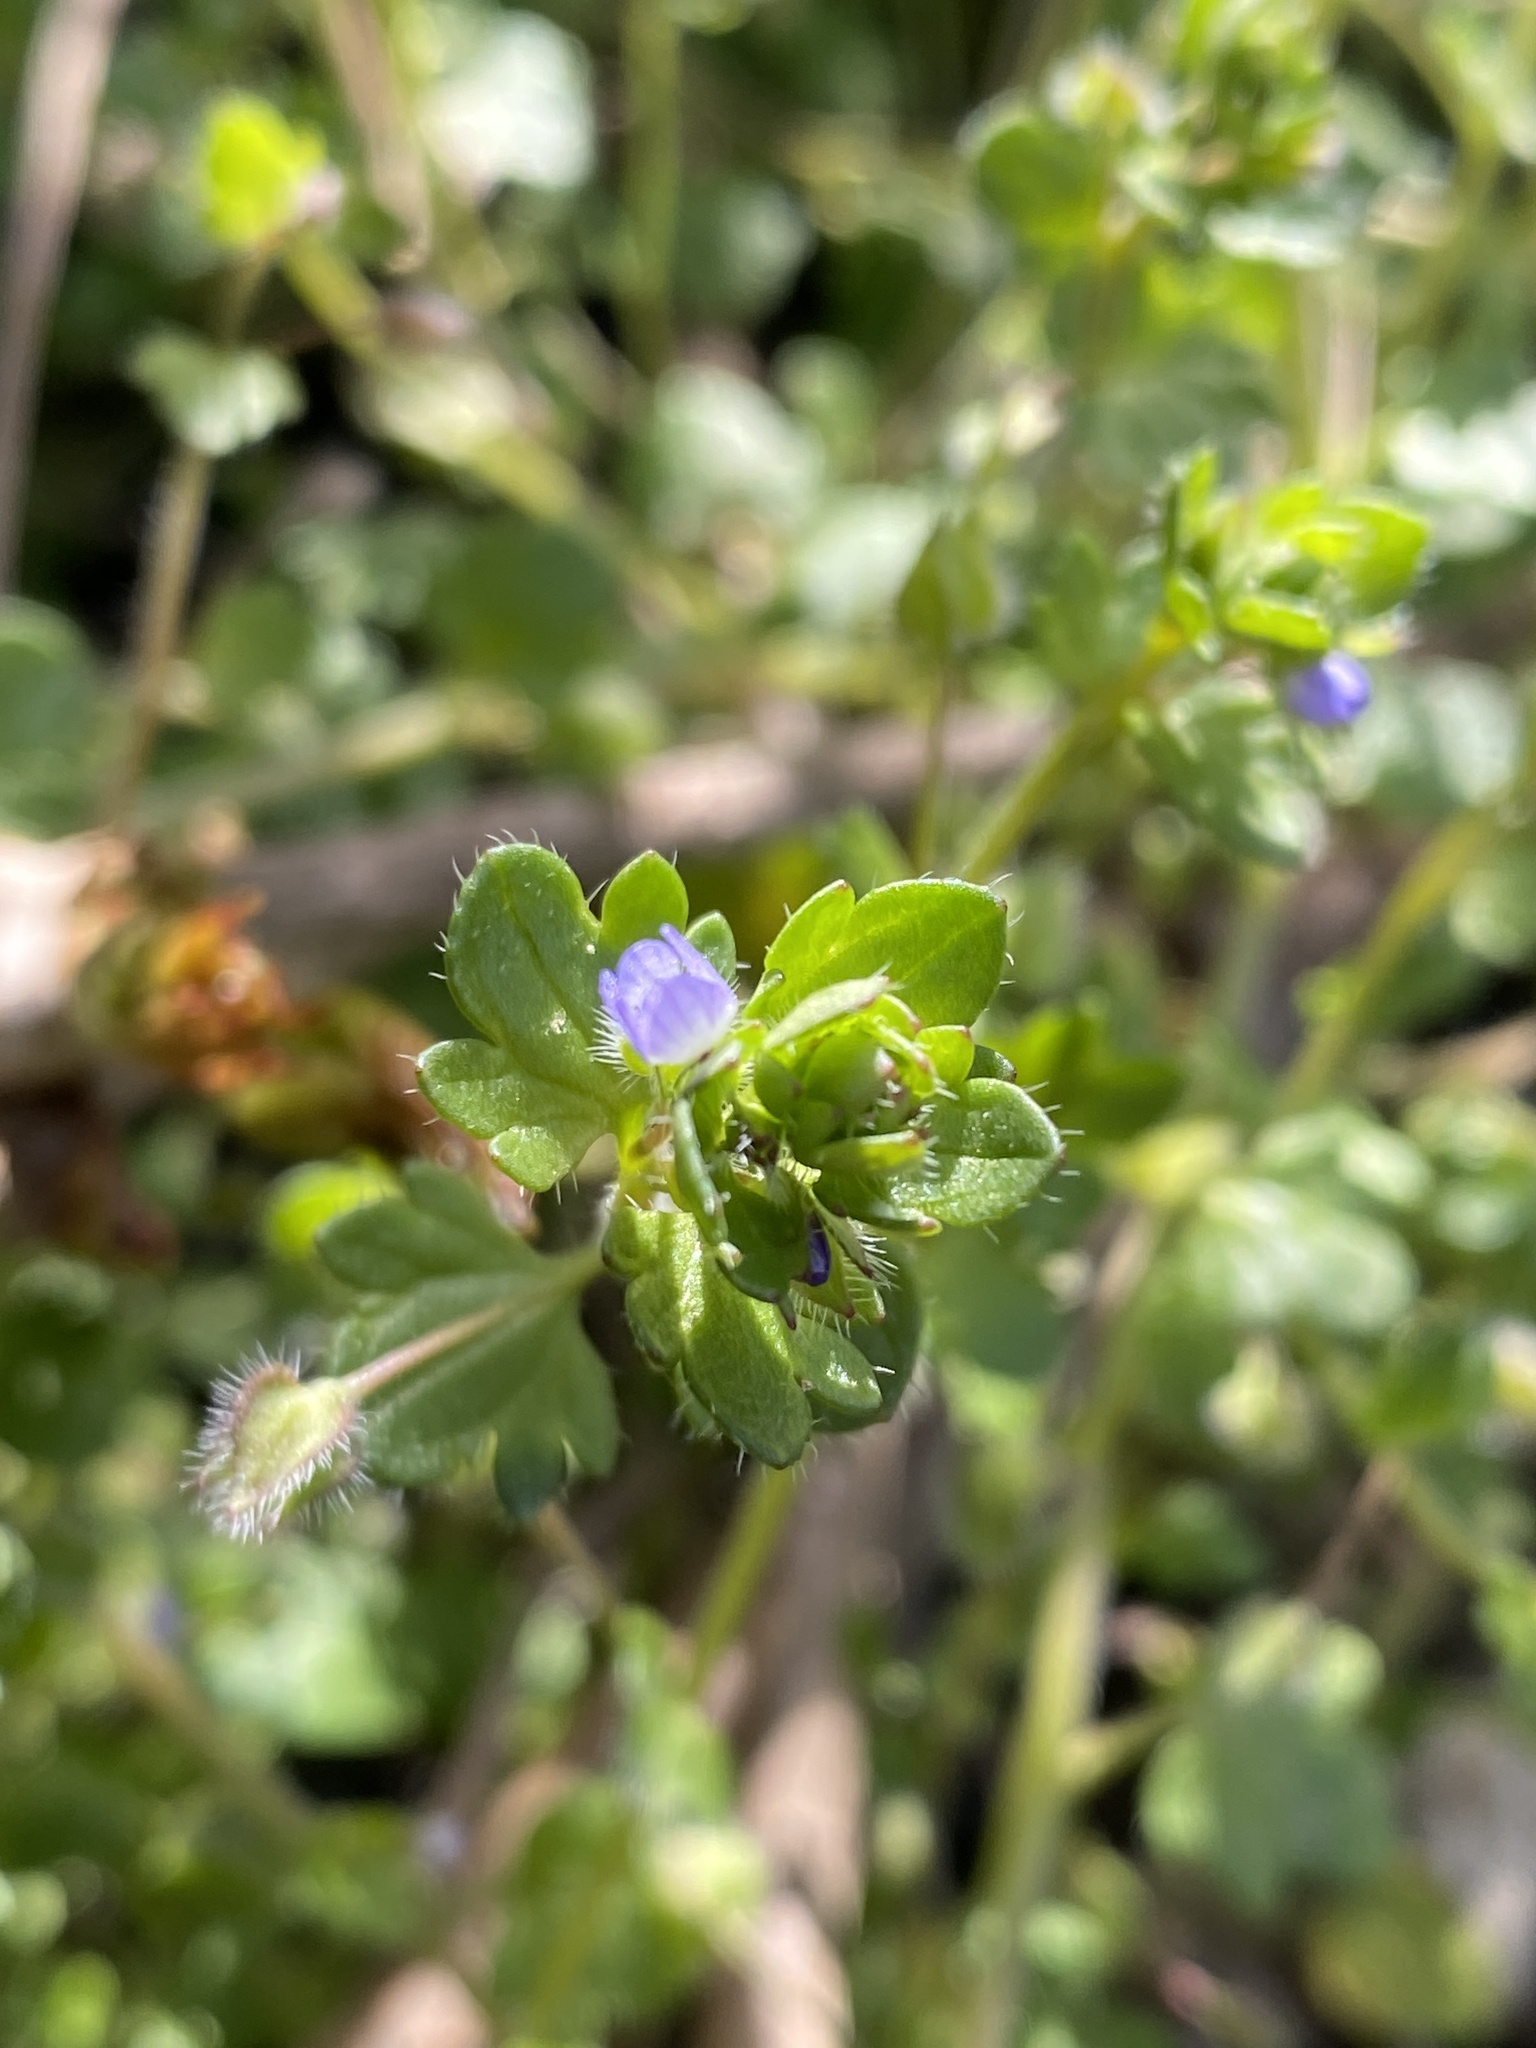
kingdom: Plantae
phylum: Tracheophyta
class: Magnoliopsida
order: Lamiales
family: Plantaginaceae
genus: Veronica
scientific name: Veronica hederifolia
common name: Ivy-leaved speedwell
